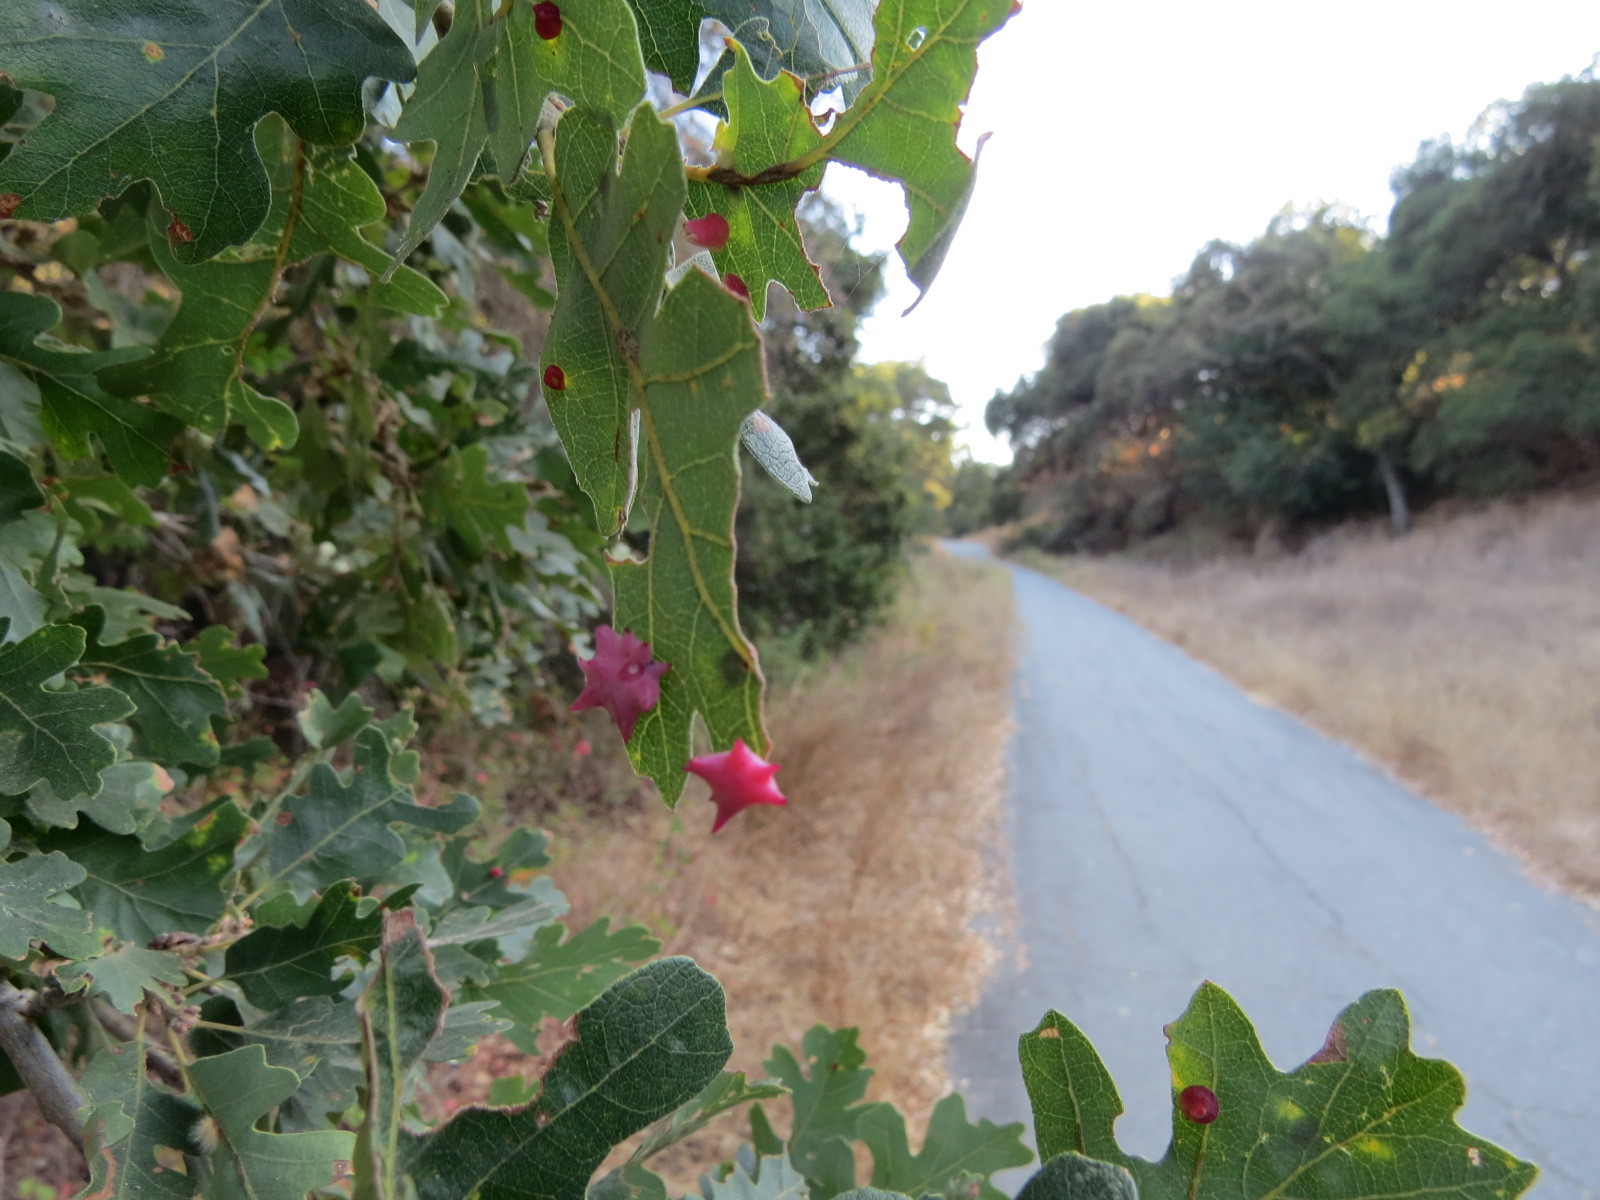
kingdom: Animalia
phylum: Arthropoda
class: Insecta
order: Hymenoptera
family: Cynipidae
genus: Cynips
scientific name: Cynips douglasi
